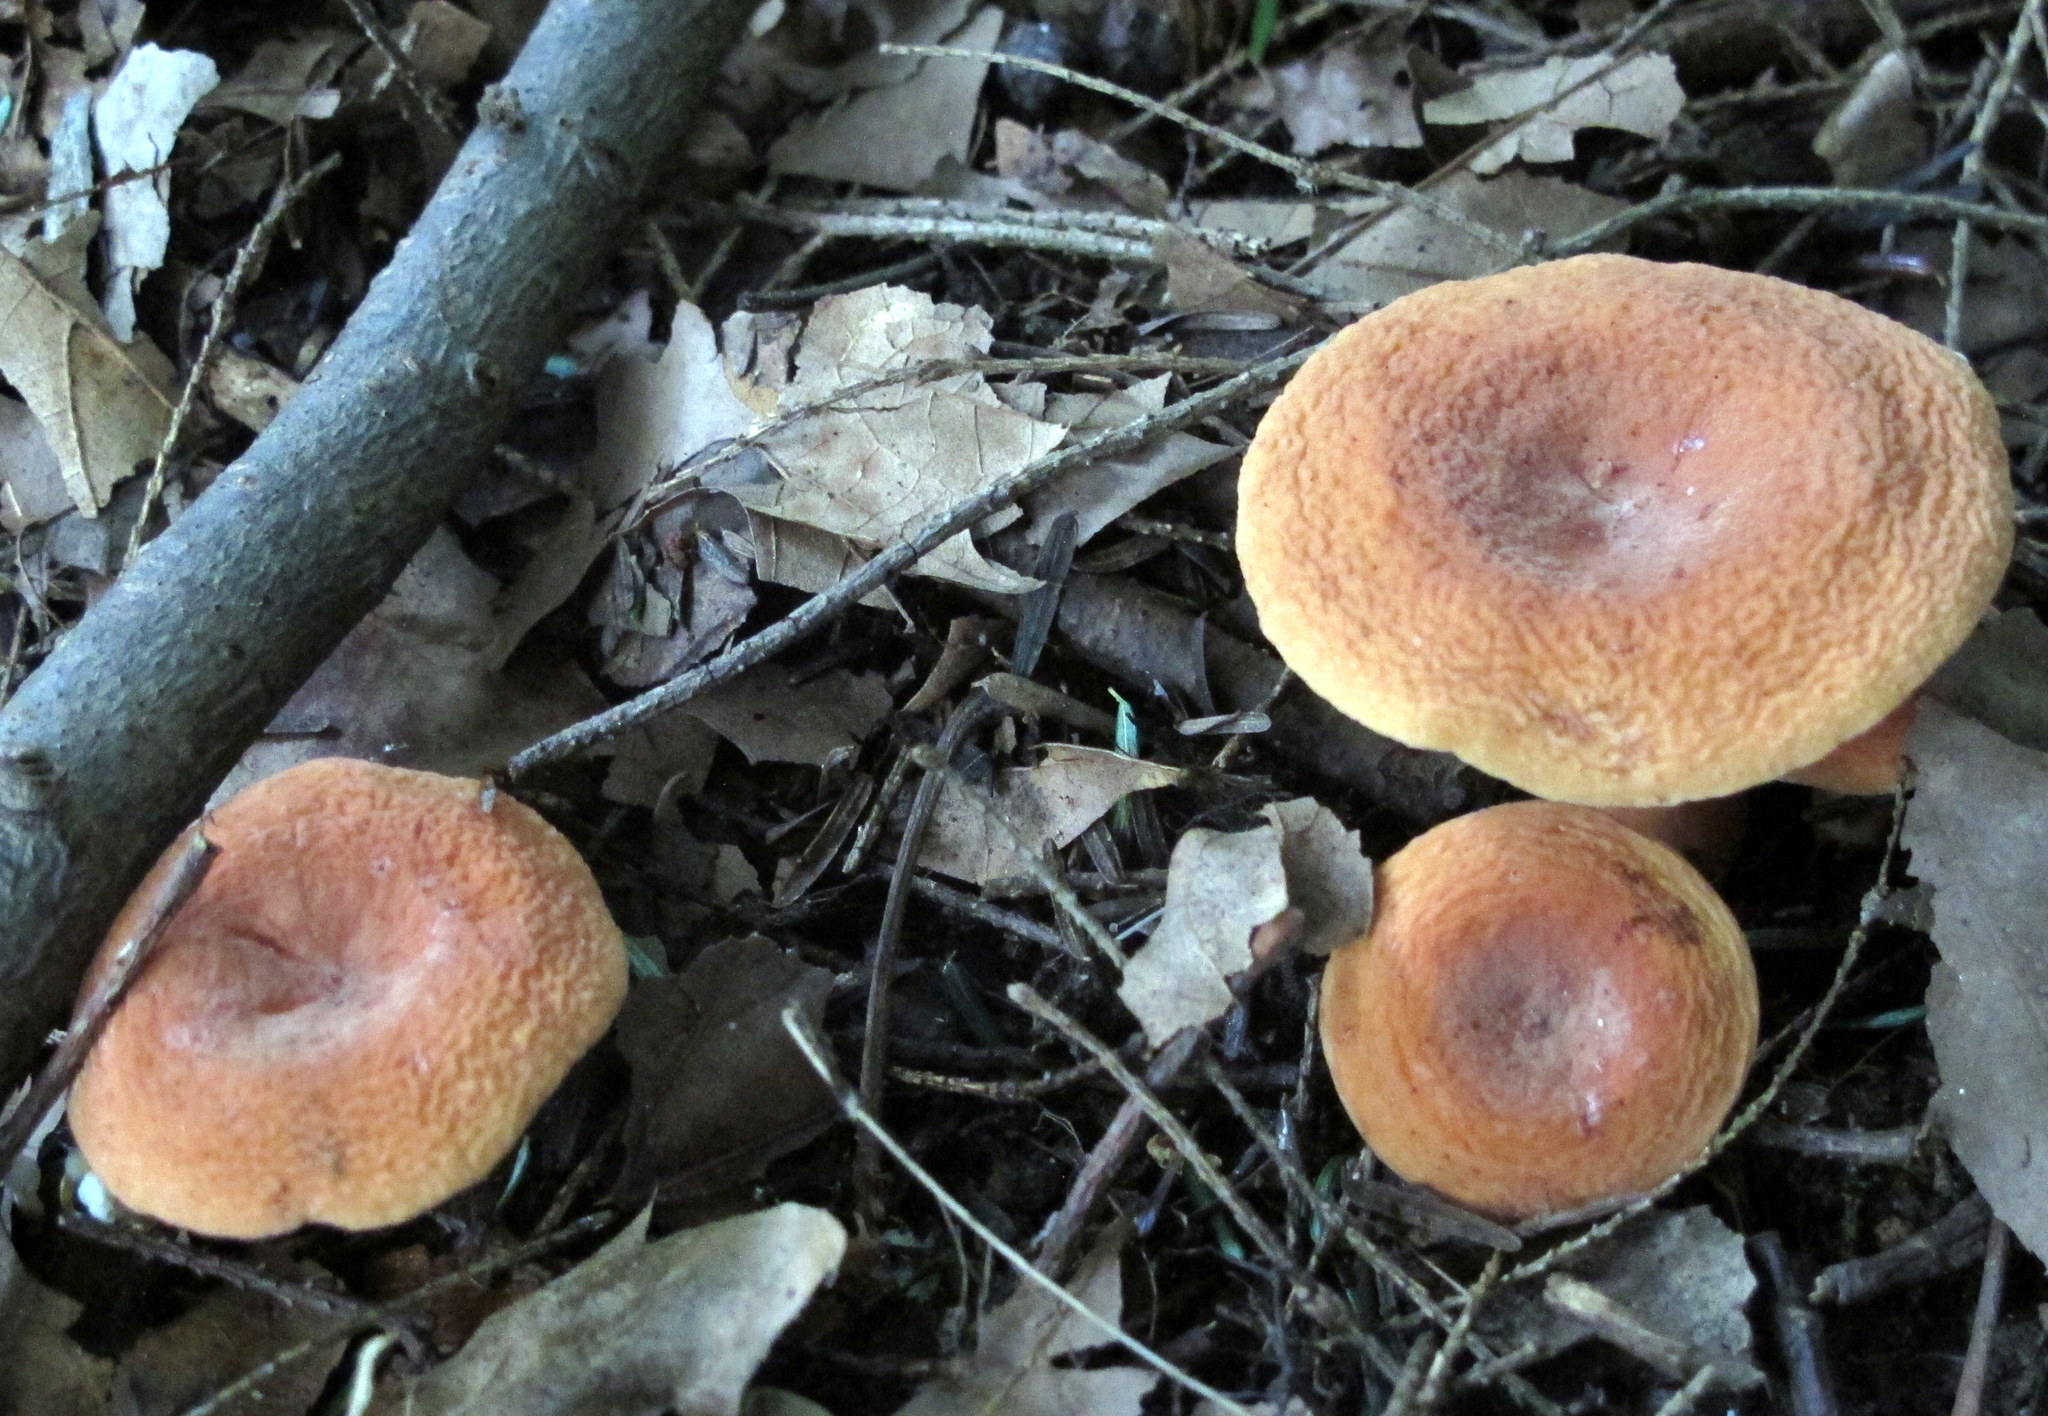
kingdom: Fungi
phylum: Basidiomycota
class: Agaricomycetes
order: Russulales
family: Russulaceae
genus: Lactarius
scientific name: Lactarius hygrophoroides
